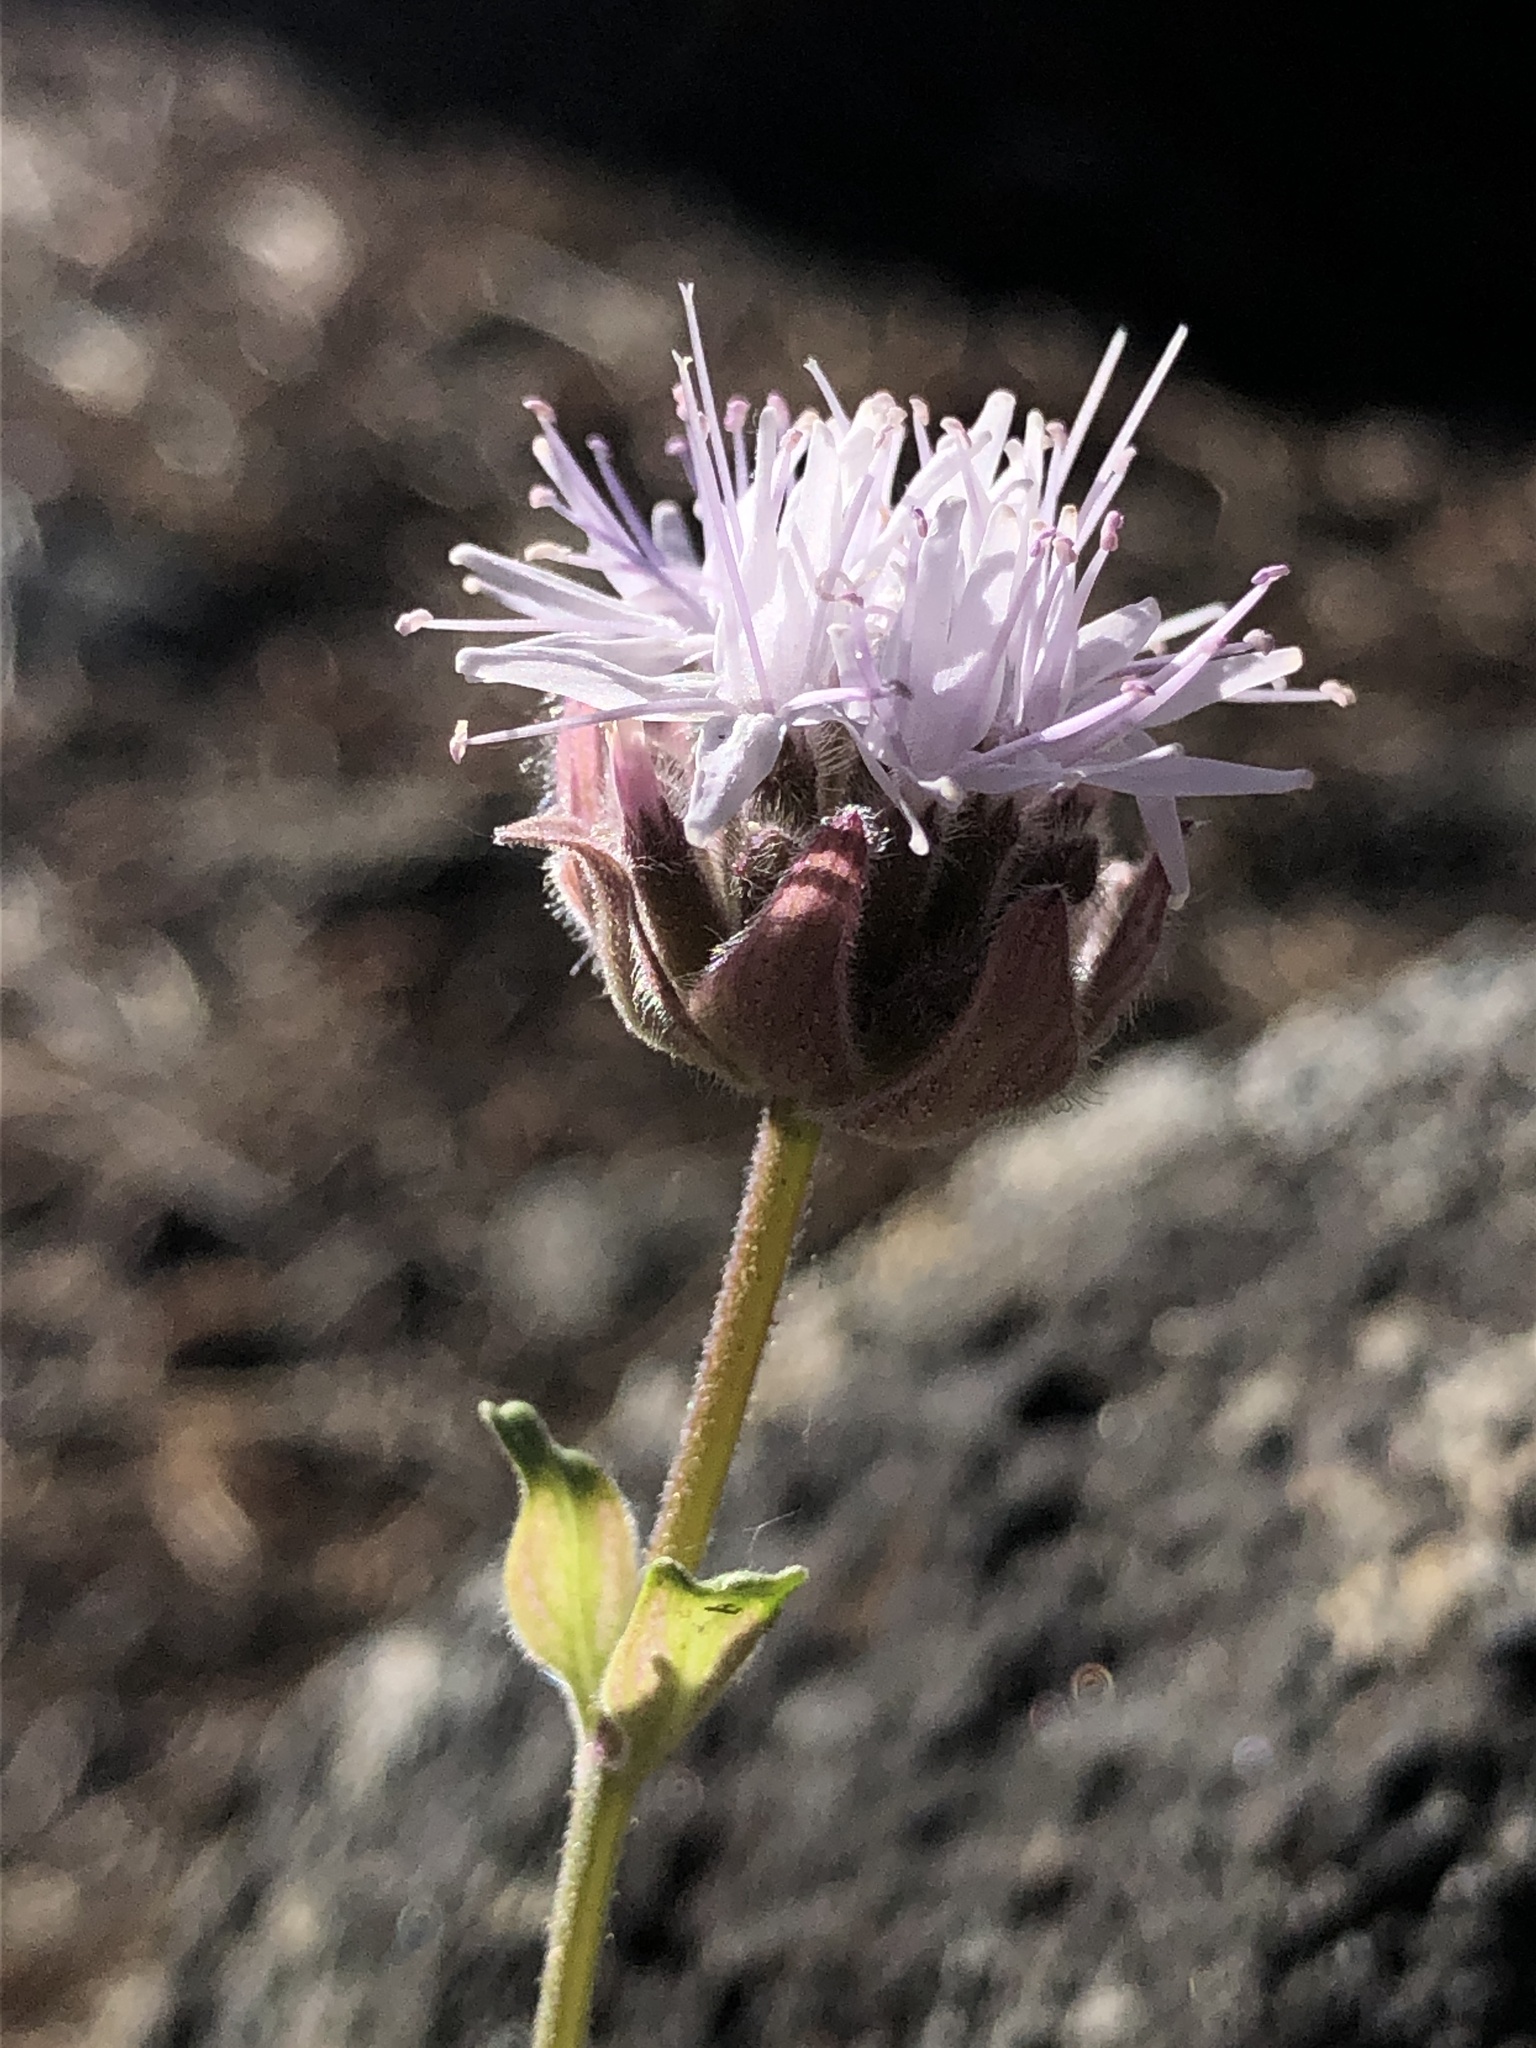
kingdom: Plantae
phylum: Tracheophyta
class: Magnoliopsida
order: Lamiales
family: Lamiaceae
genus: Monardella
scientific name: Monardella odoratissima
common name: Pacific monardella
